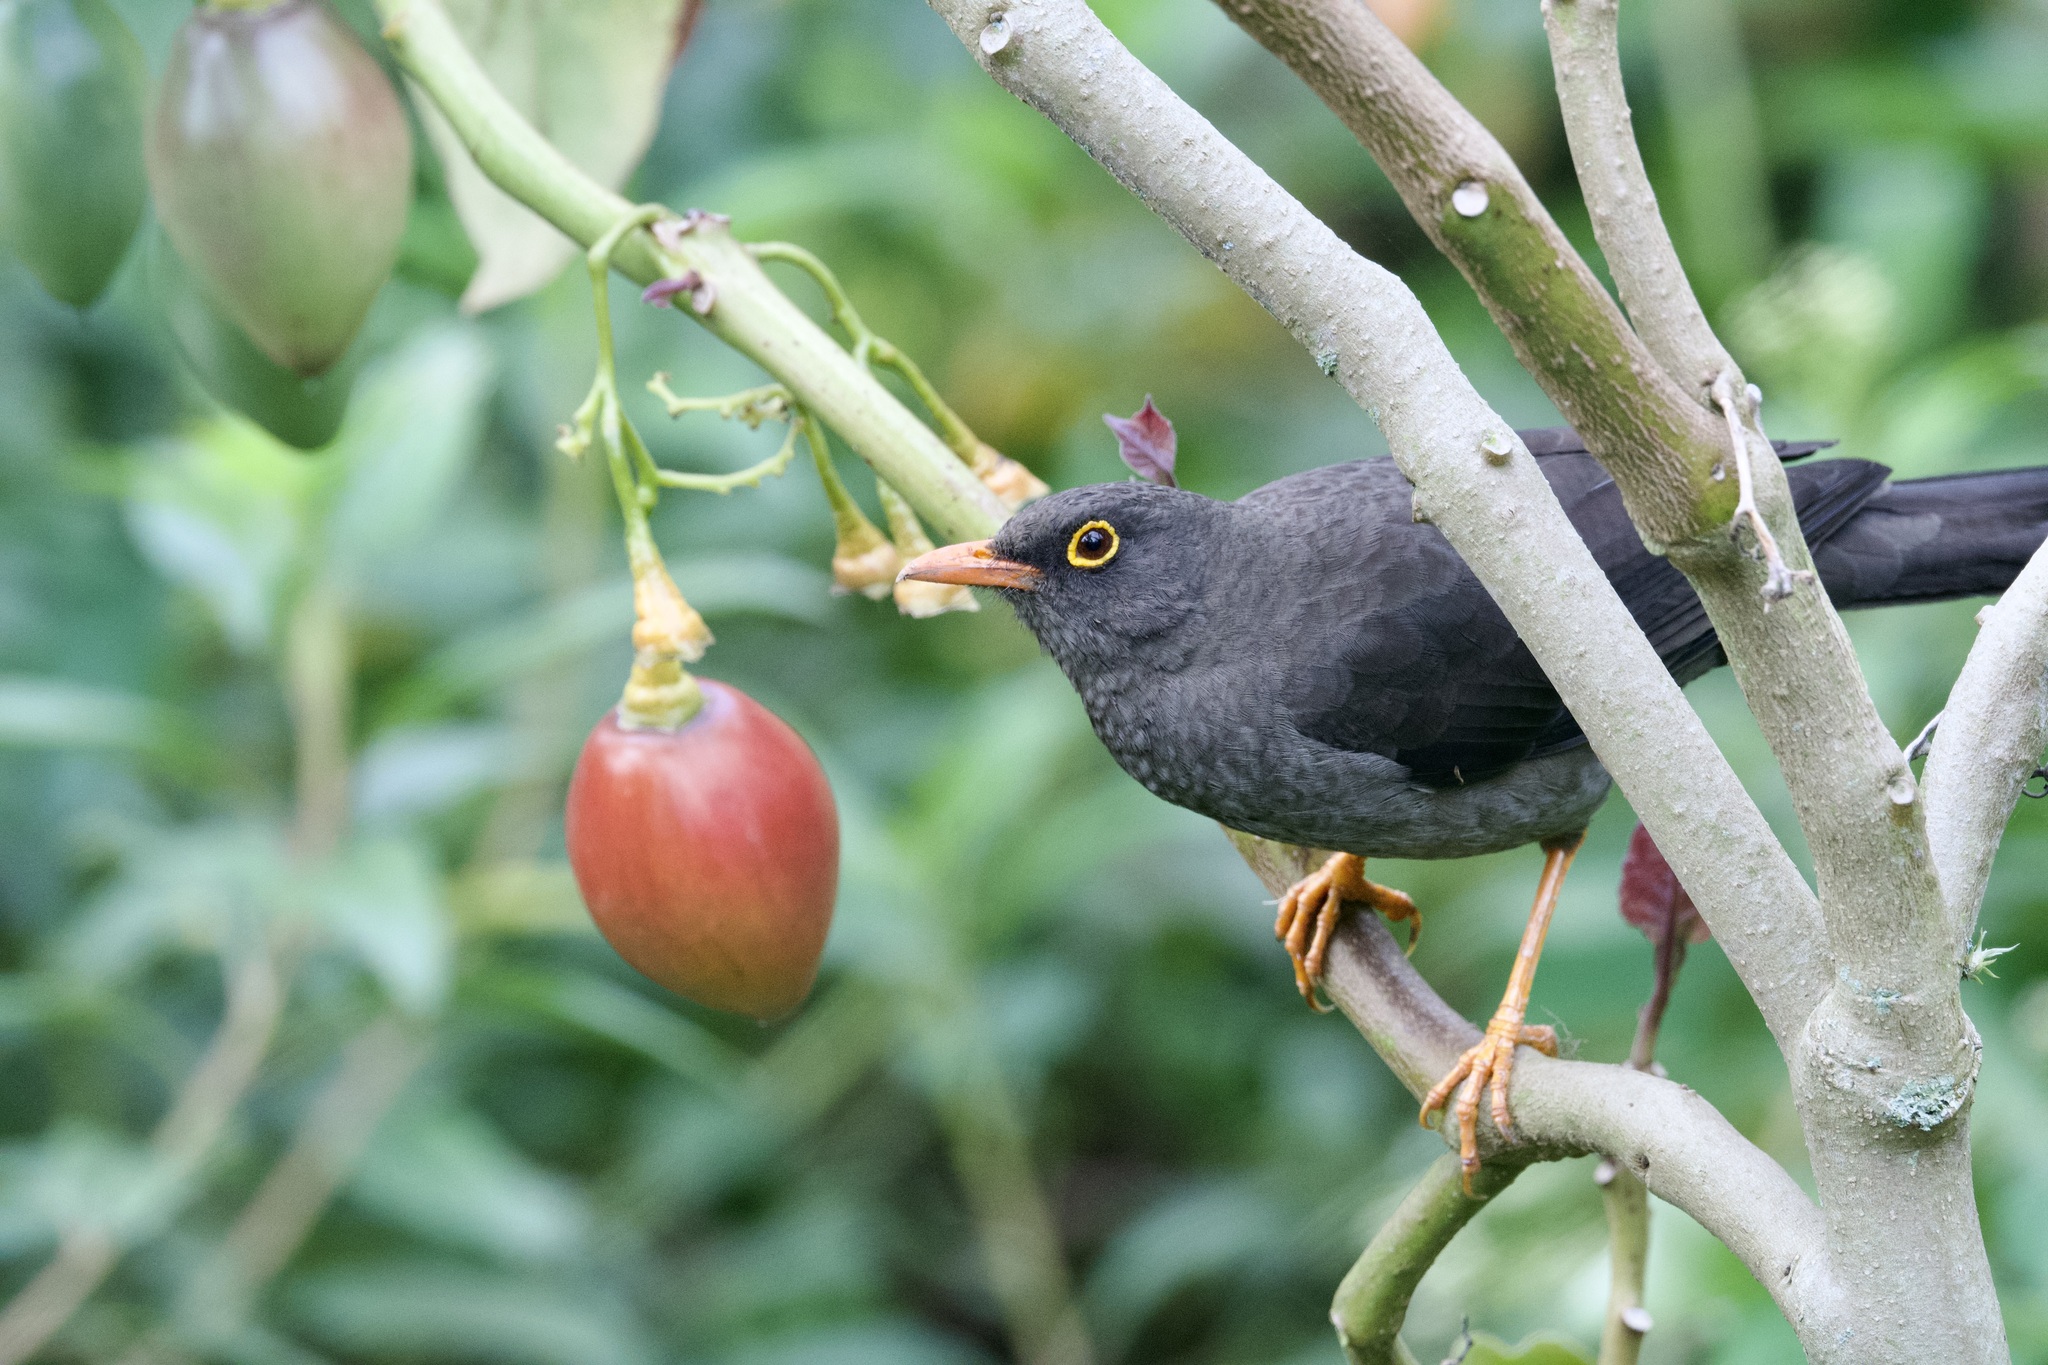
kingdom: Animalia
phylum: Chordata
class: Aves
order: Passeriformes
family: Turdidae
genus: Turdus
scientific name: Turdus fuscater
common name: Great thrush
